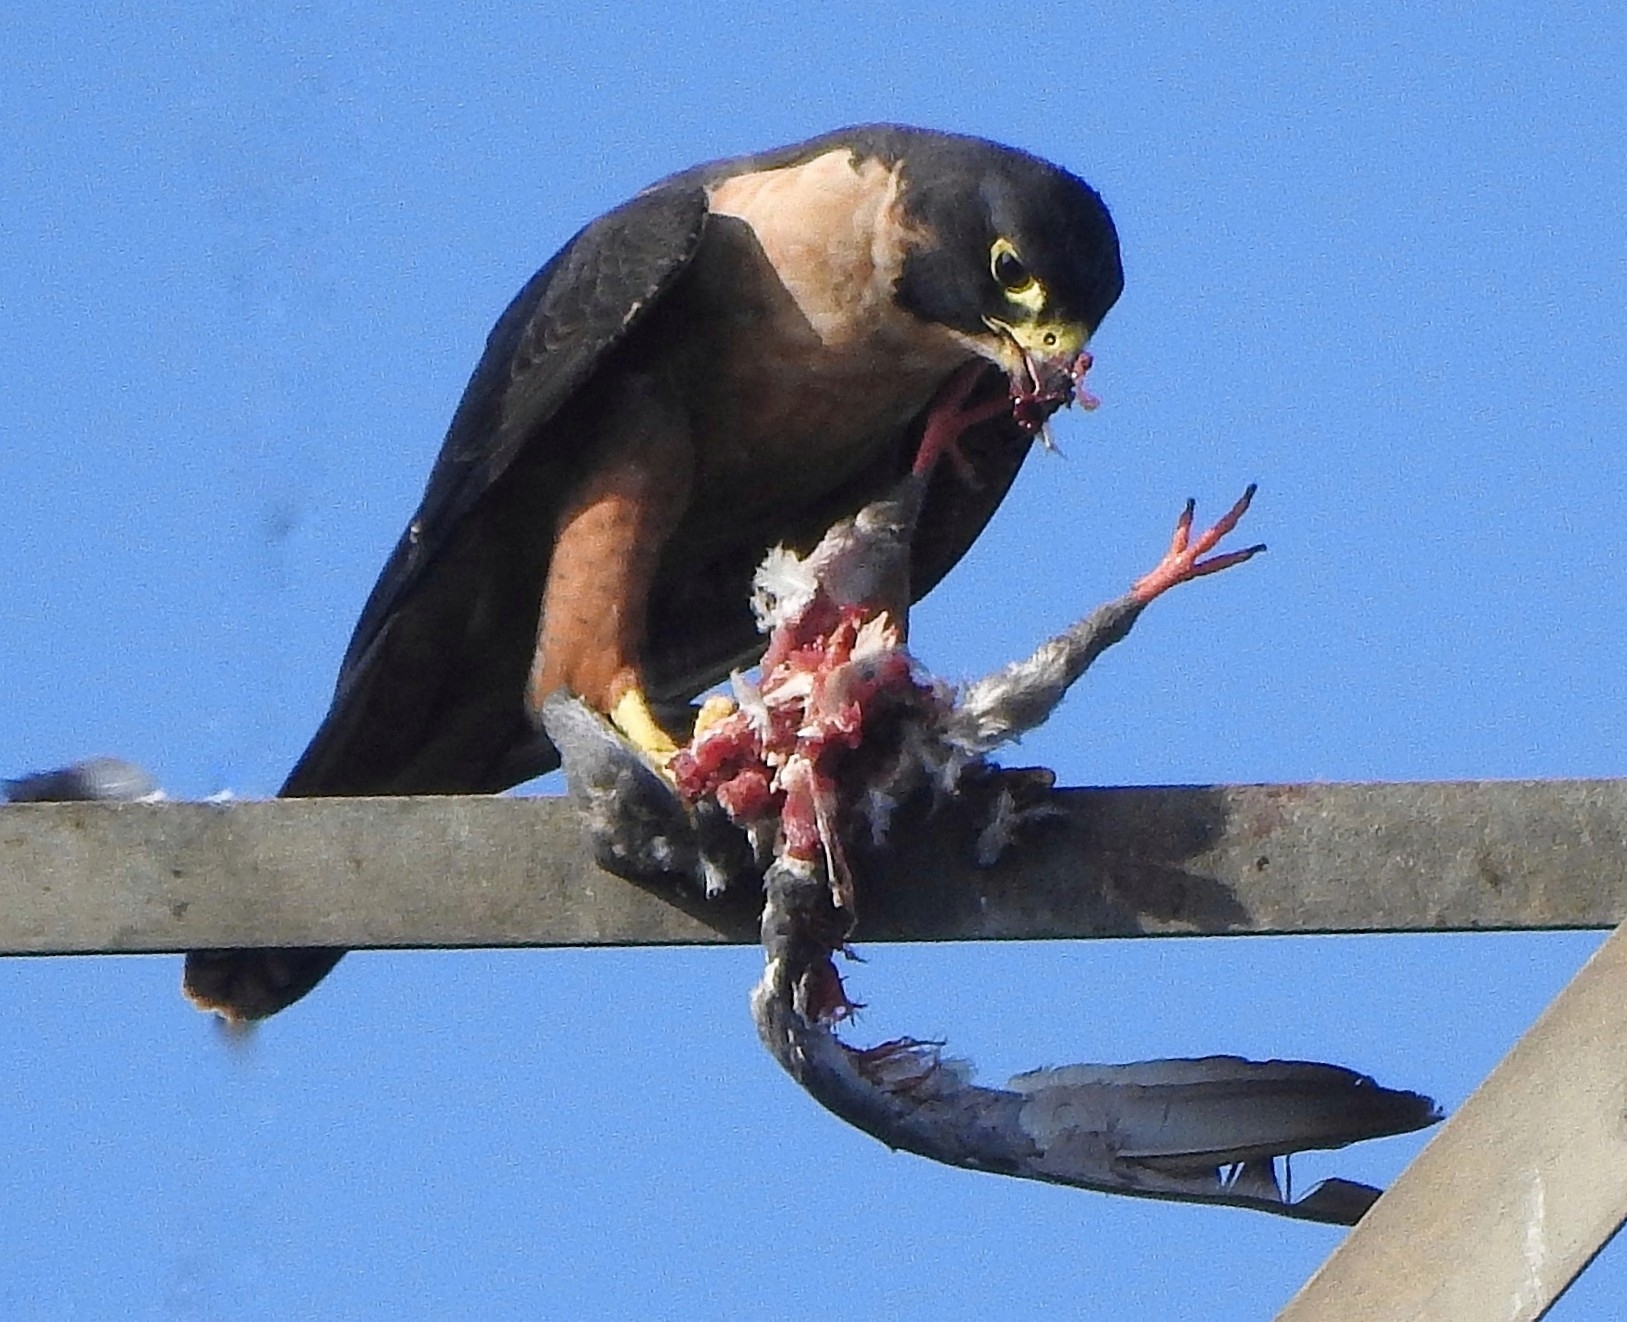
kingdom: Animalia
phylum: Chordata
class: Aves
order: Falconiformes
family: Falconidae
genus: Falco
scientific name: Falco peregrinus
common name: Peregrine falcon
